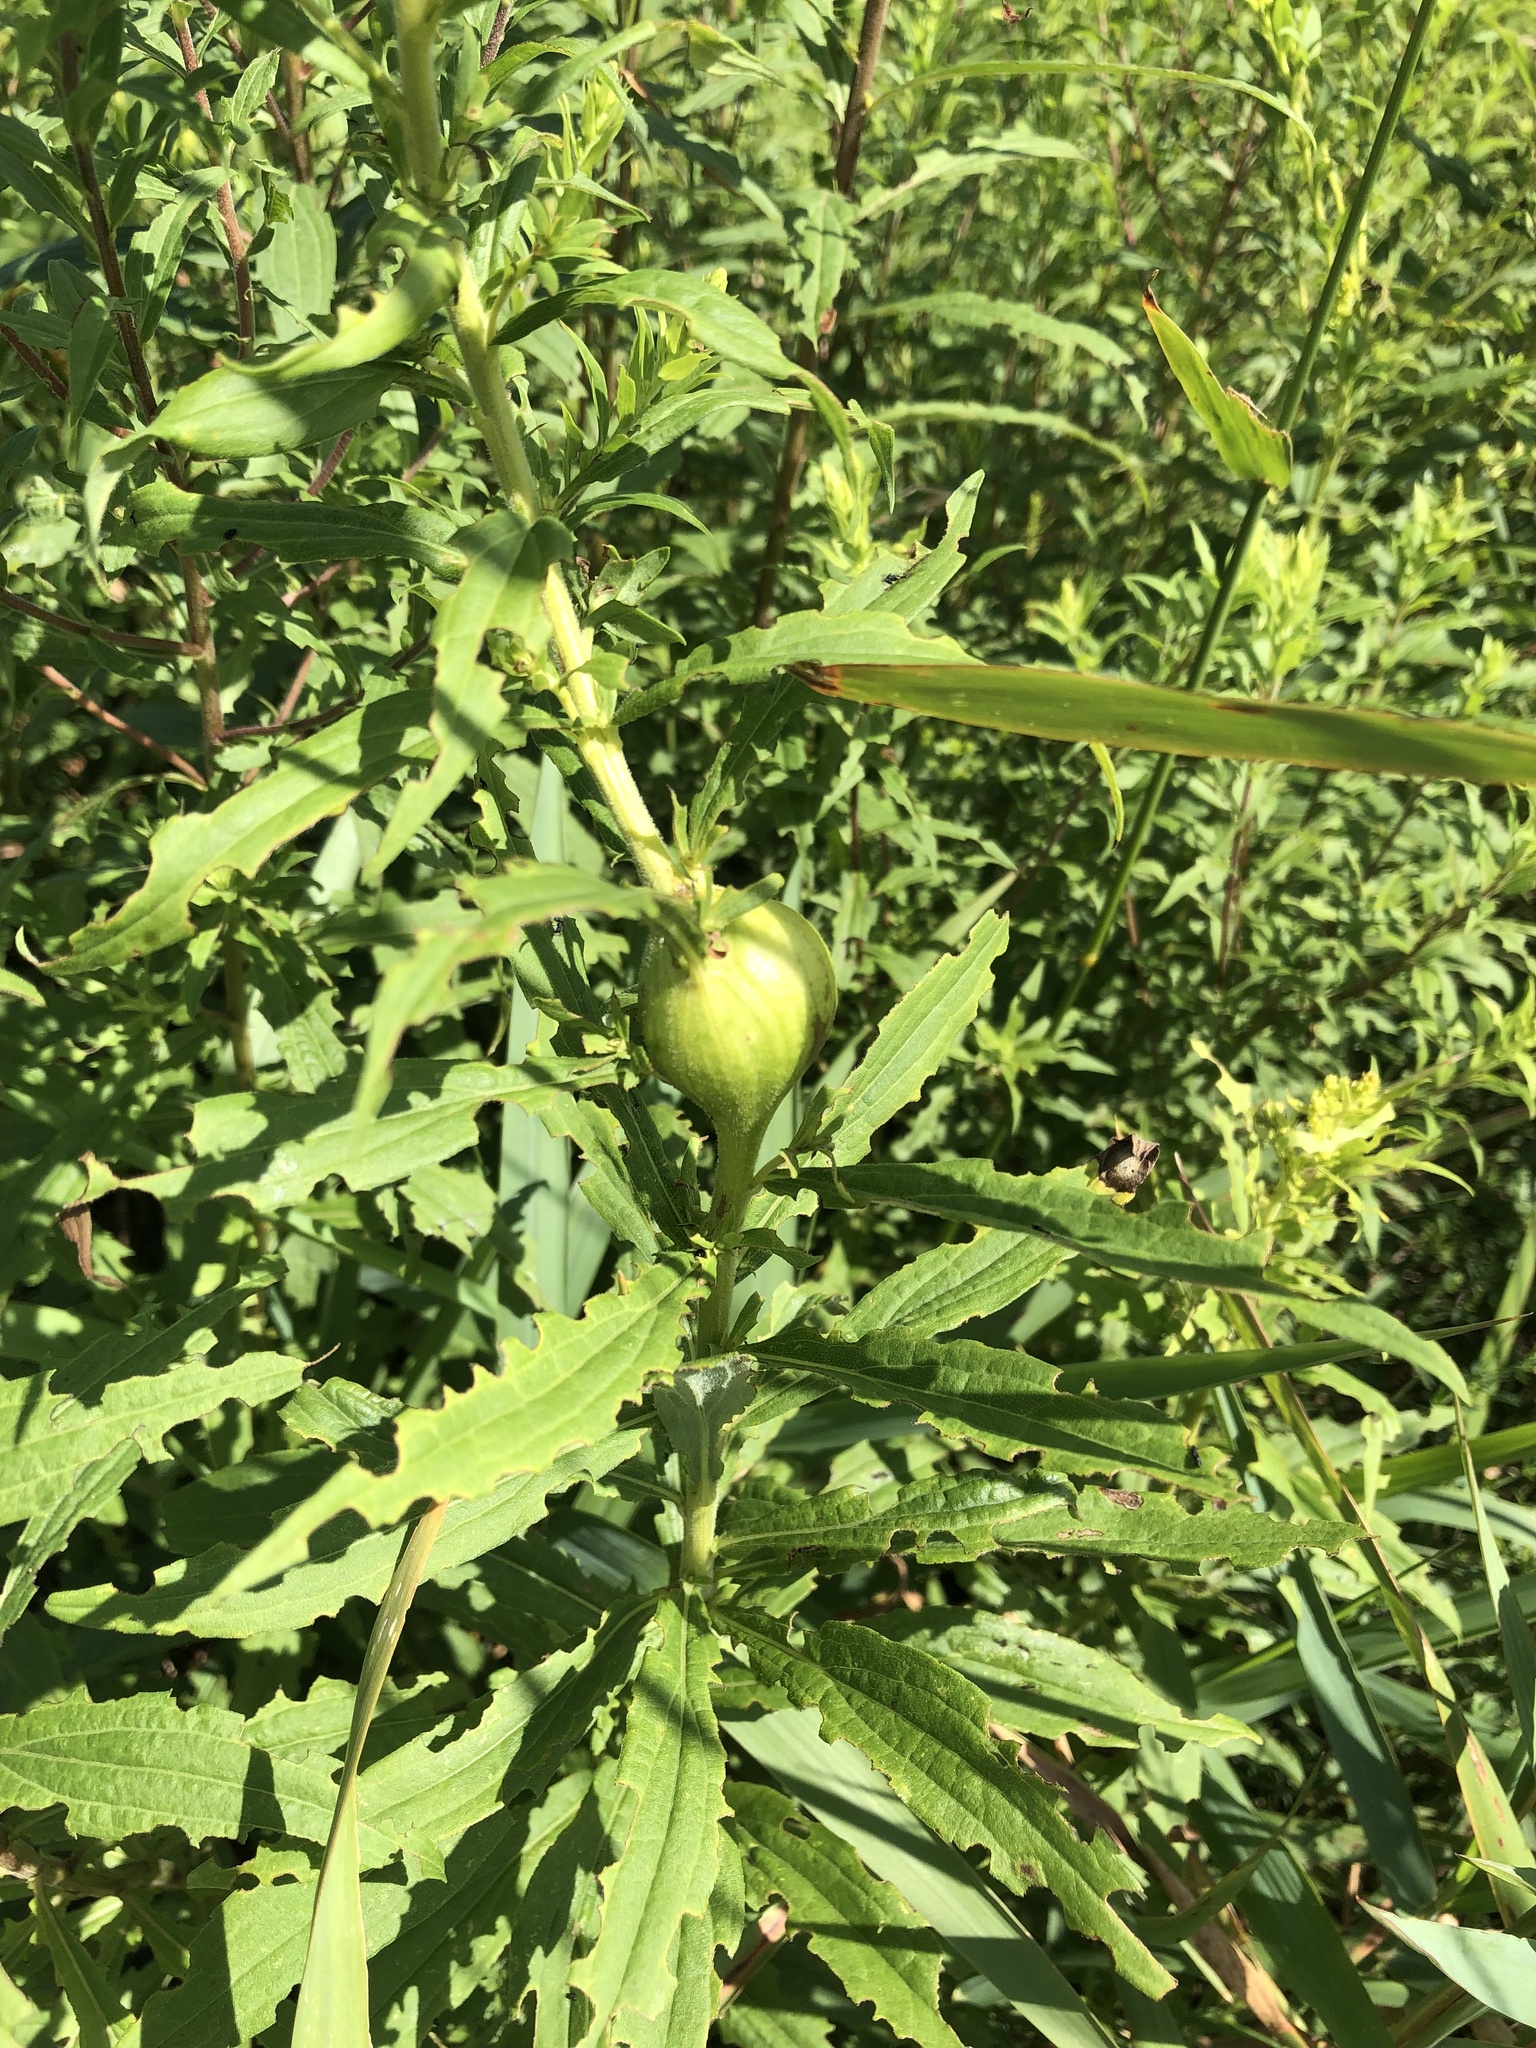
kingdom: Animalia
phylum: Arthropoda
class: Insecta
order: Diptera
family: Tephritidae
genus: Eurosta
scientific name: Eurosta solidaginis
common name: Goldenrod gall fly
